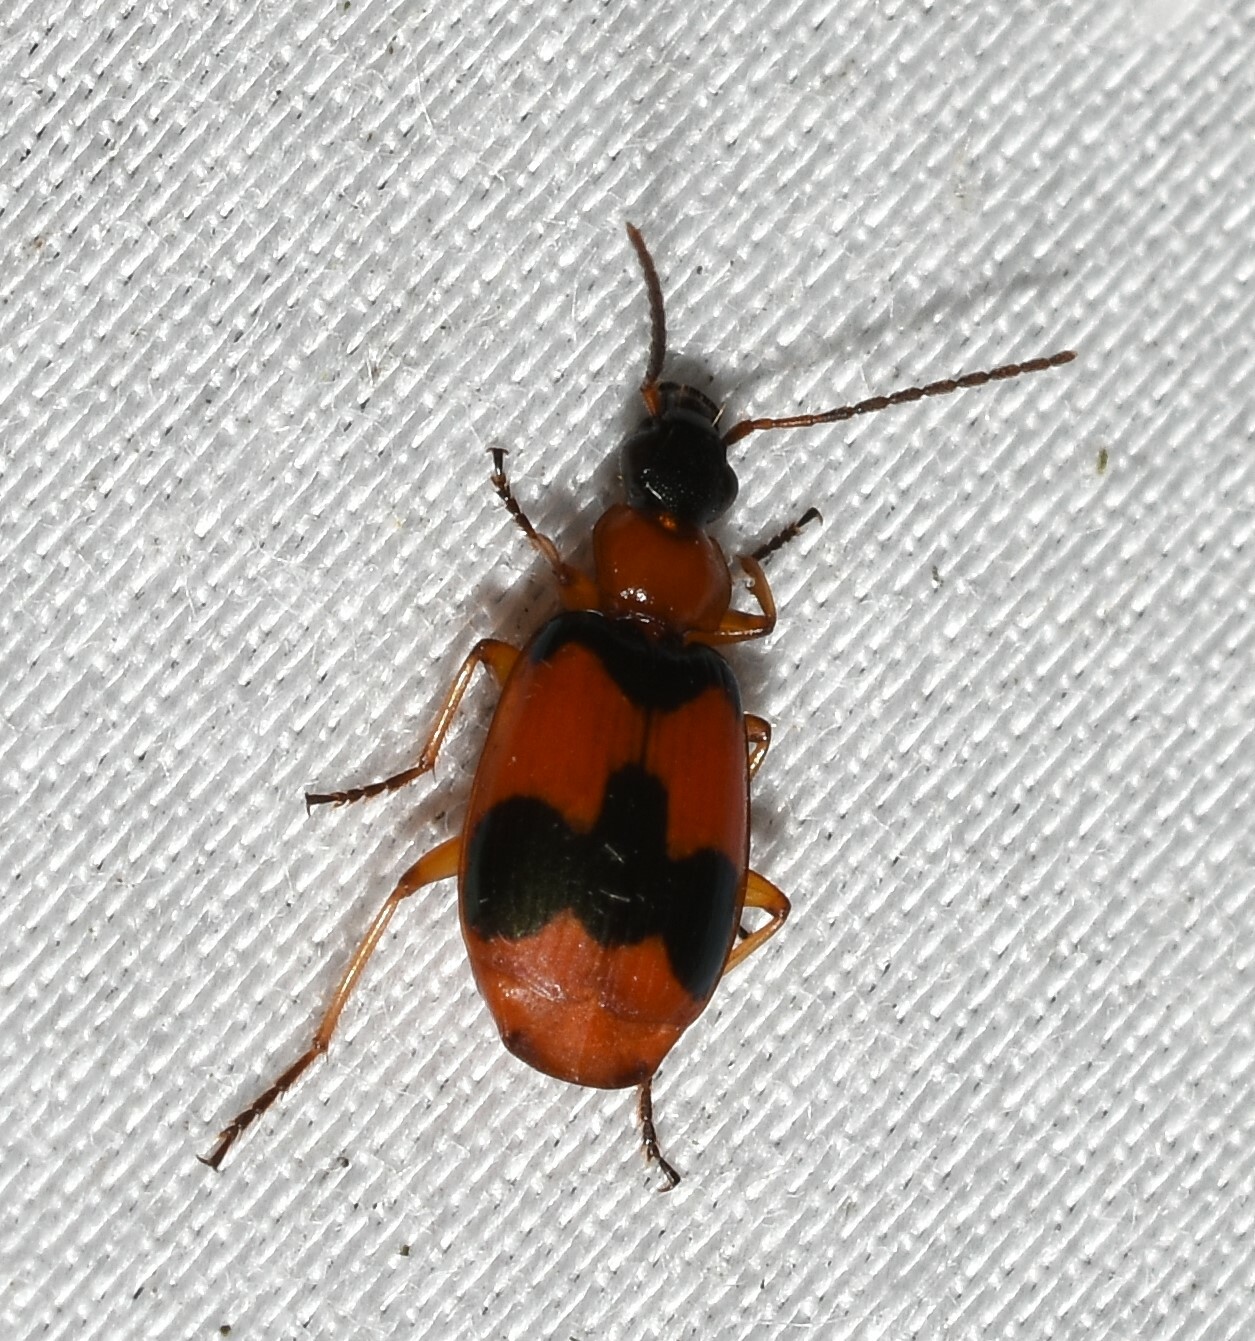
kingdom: Animalia
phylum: Arthropoda
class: Insecta
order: Coleoptera
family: Carabidae
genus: Lebia
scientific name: Lebia pulchella
